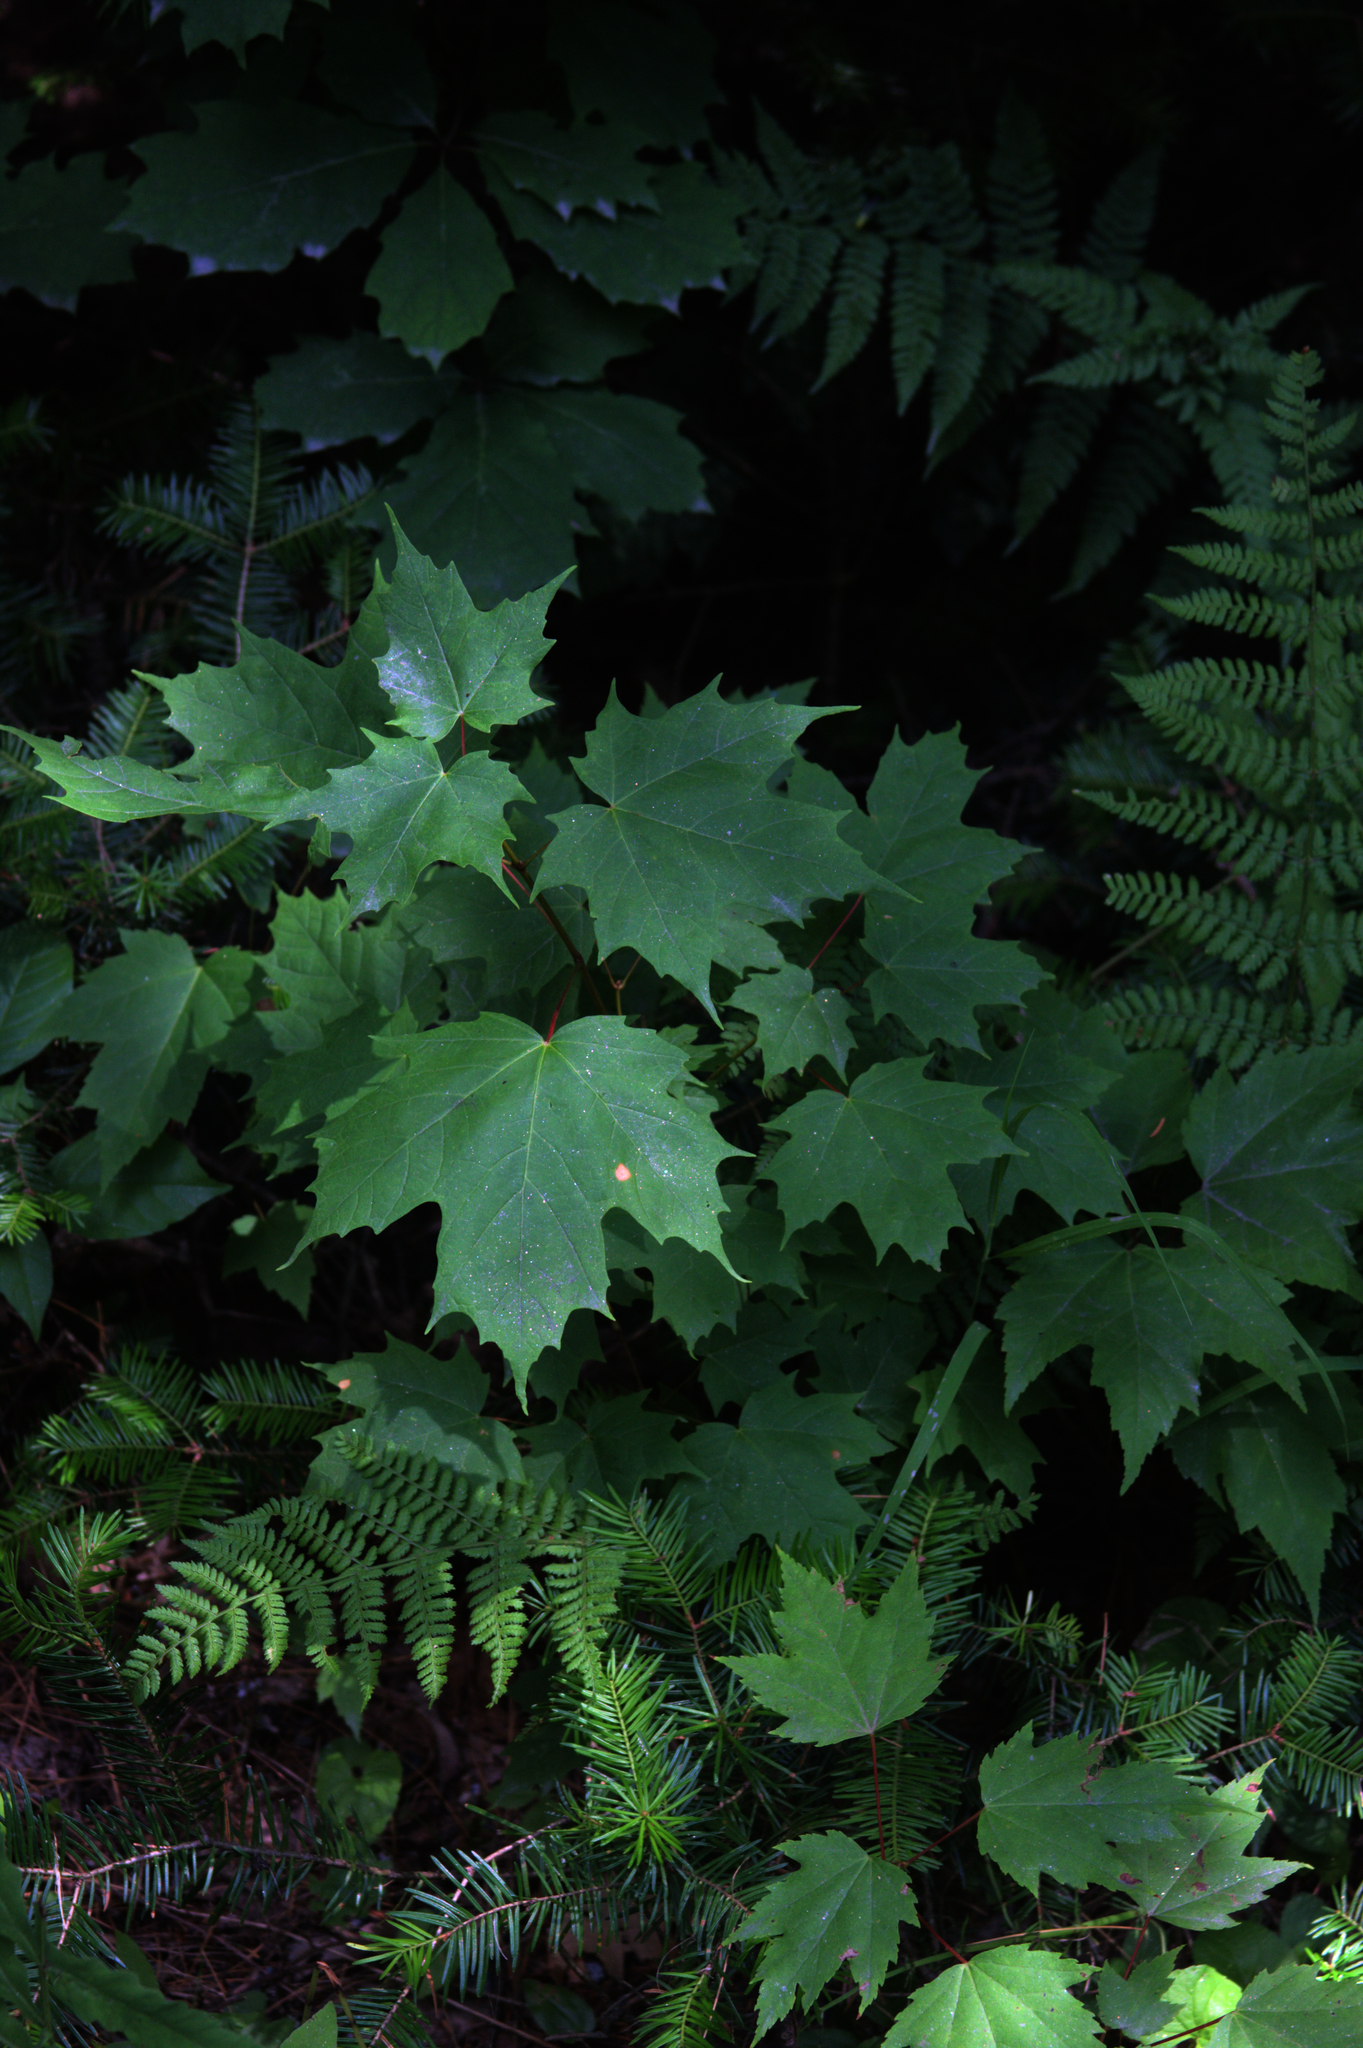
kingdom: Plantae
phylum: Tracheophyta
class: Magnoliopsida
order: Sapindales
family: Sapindaceae
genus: Acer
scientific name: Acer saccharum
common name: Sugar maple
